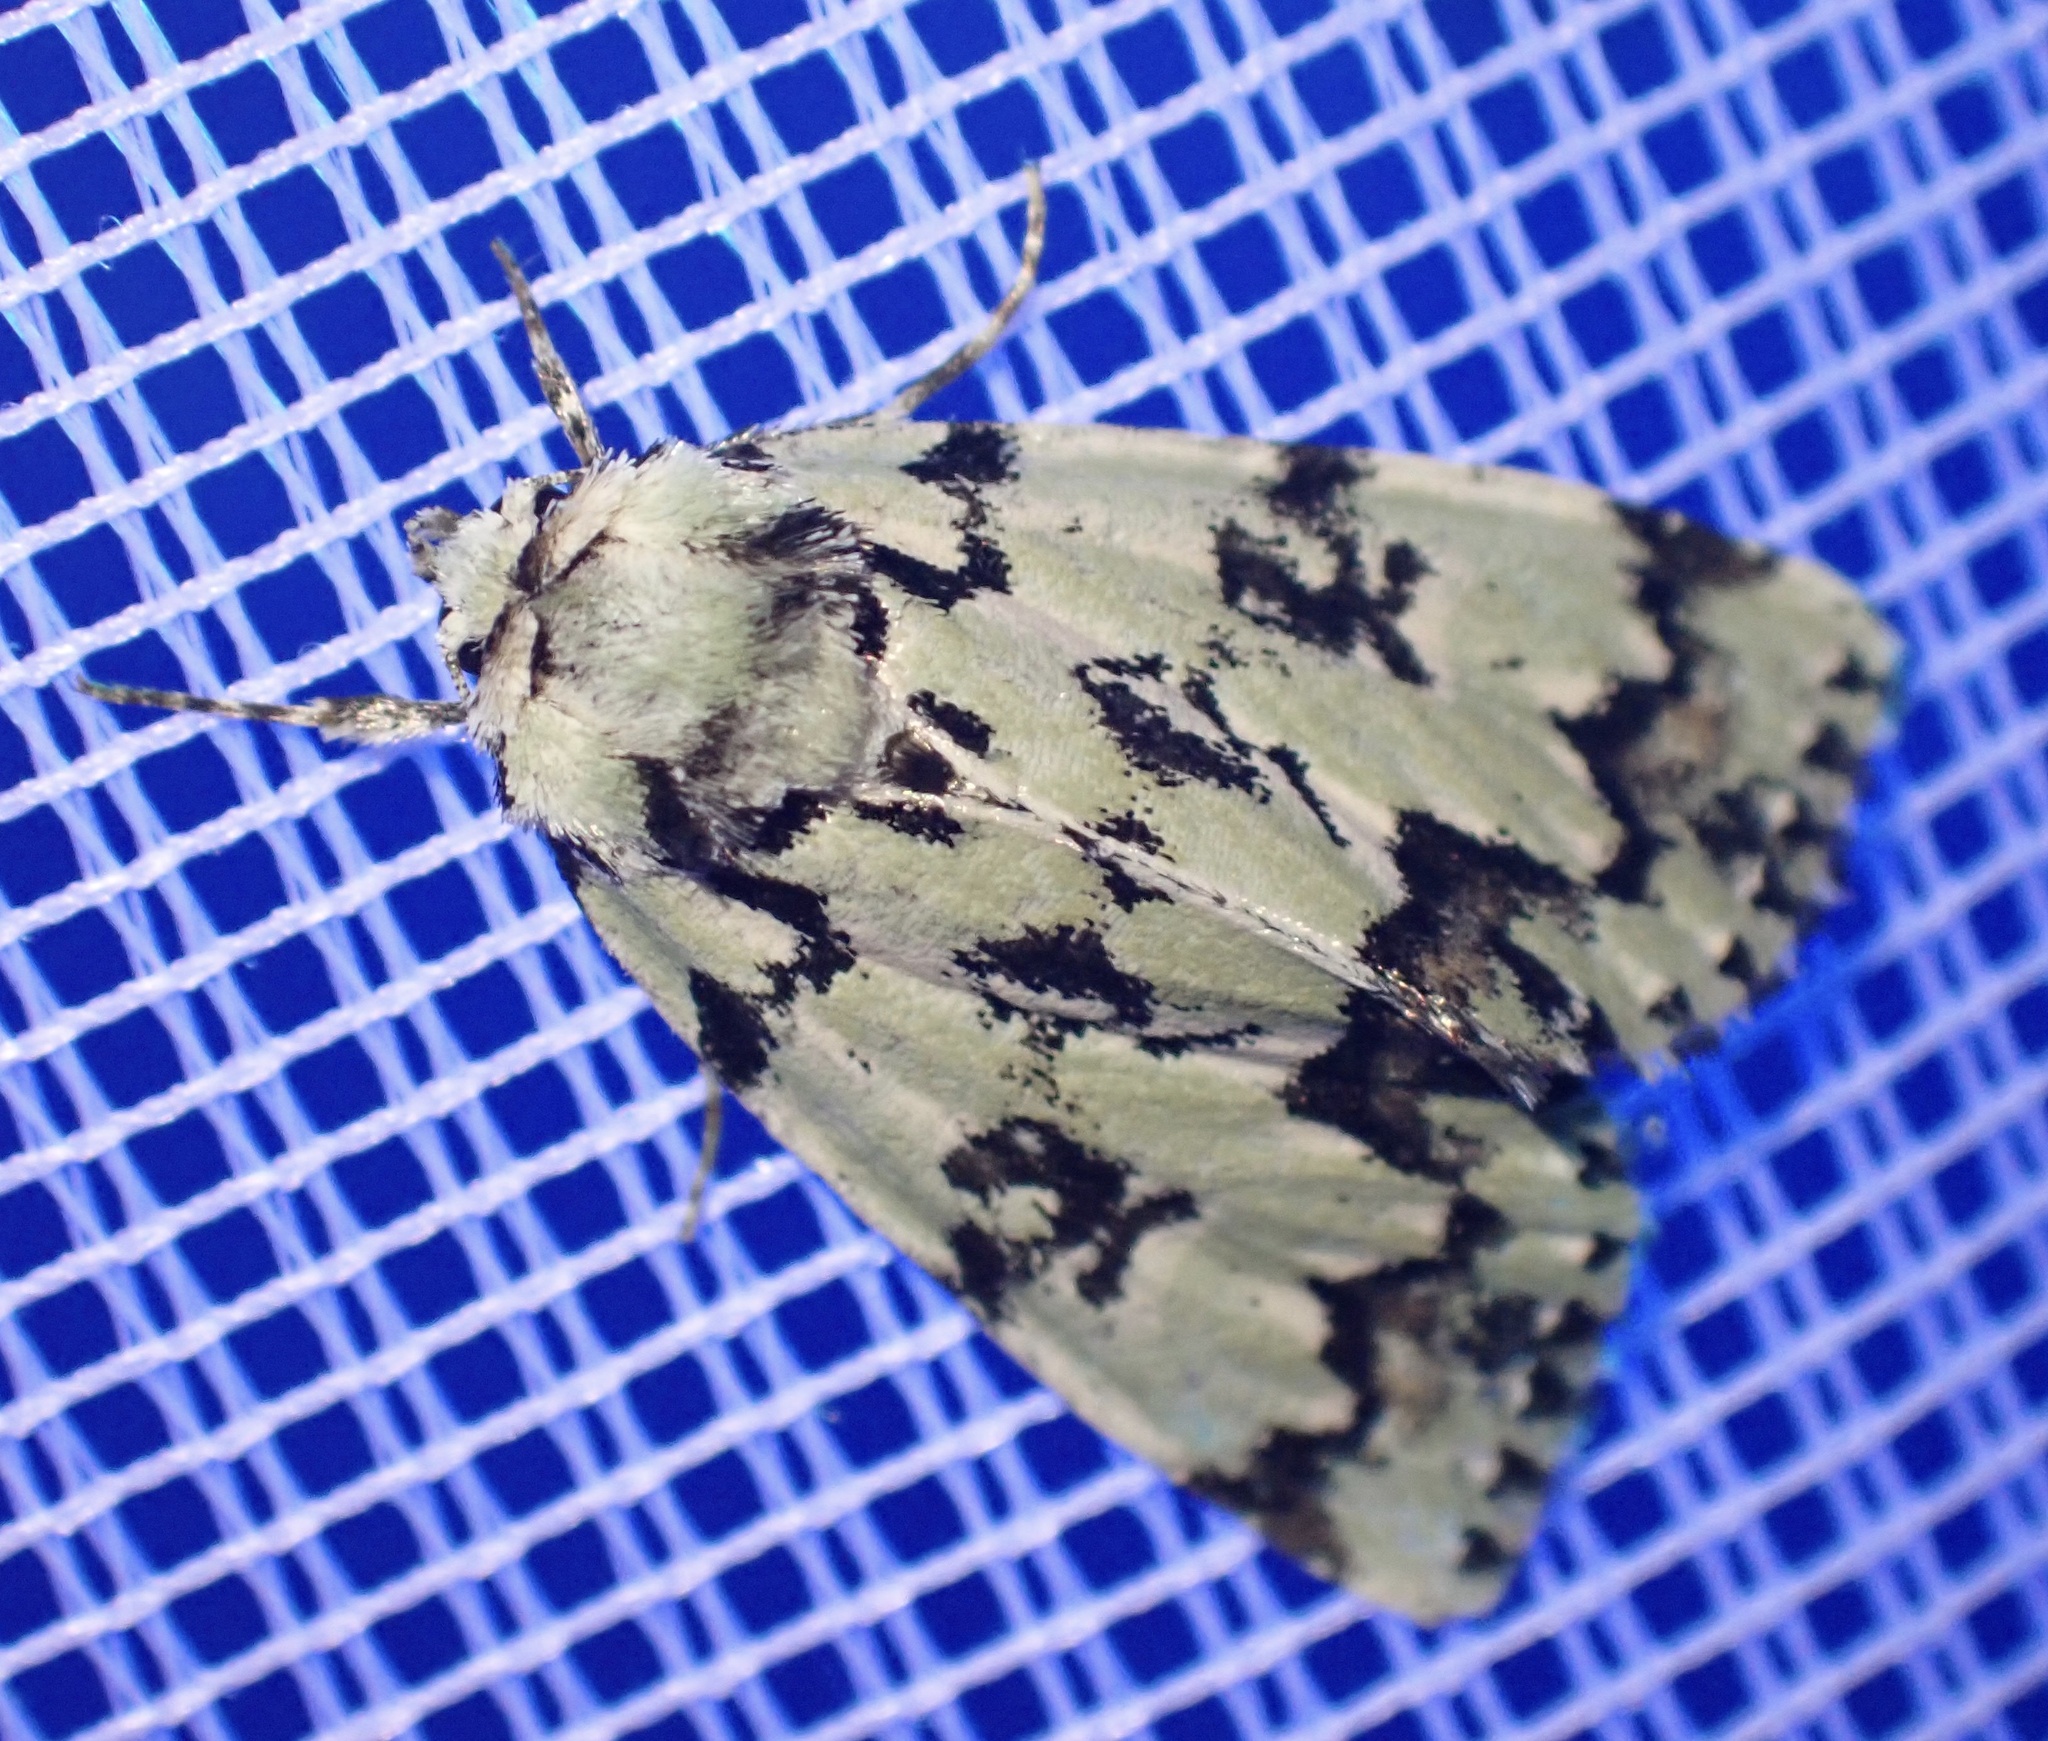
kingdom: Animalia
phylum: Arthropoda
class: Insecta
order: Lepidoptera
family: Noctuidae
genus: Moma
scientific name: Moma alpium
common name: Scarce merveille du jour
